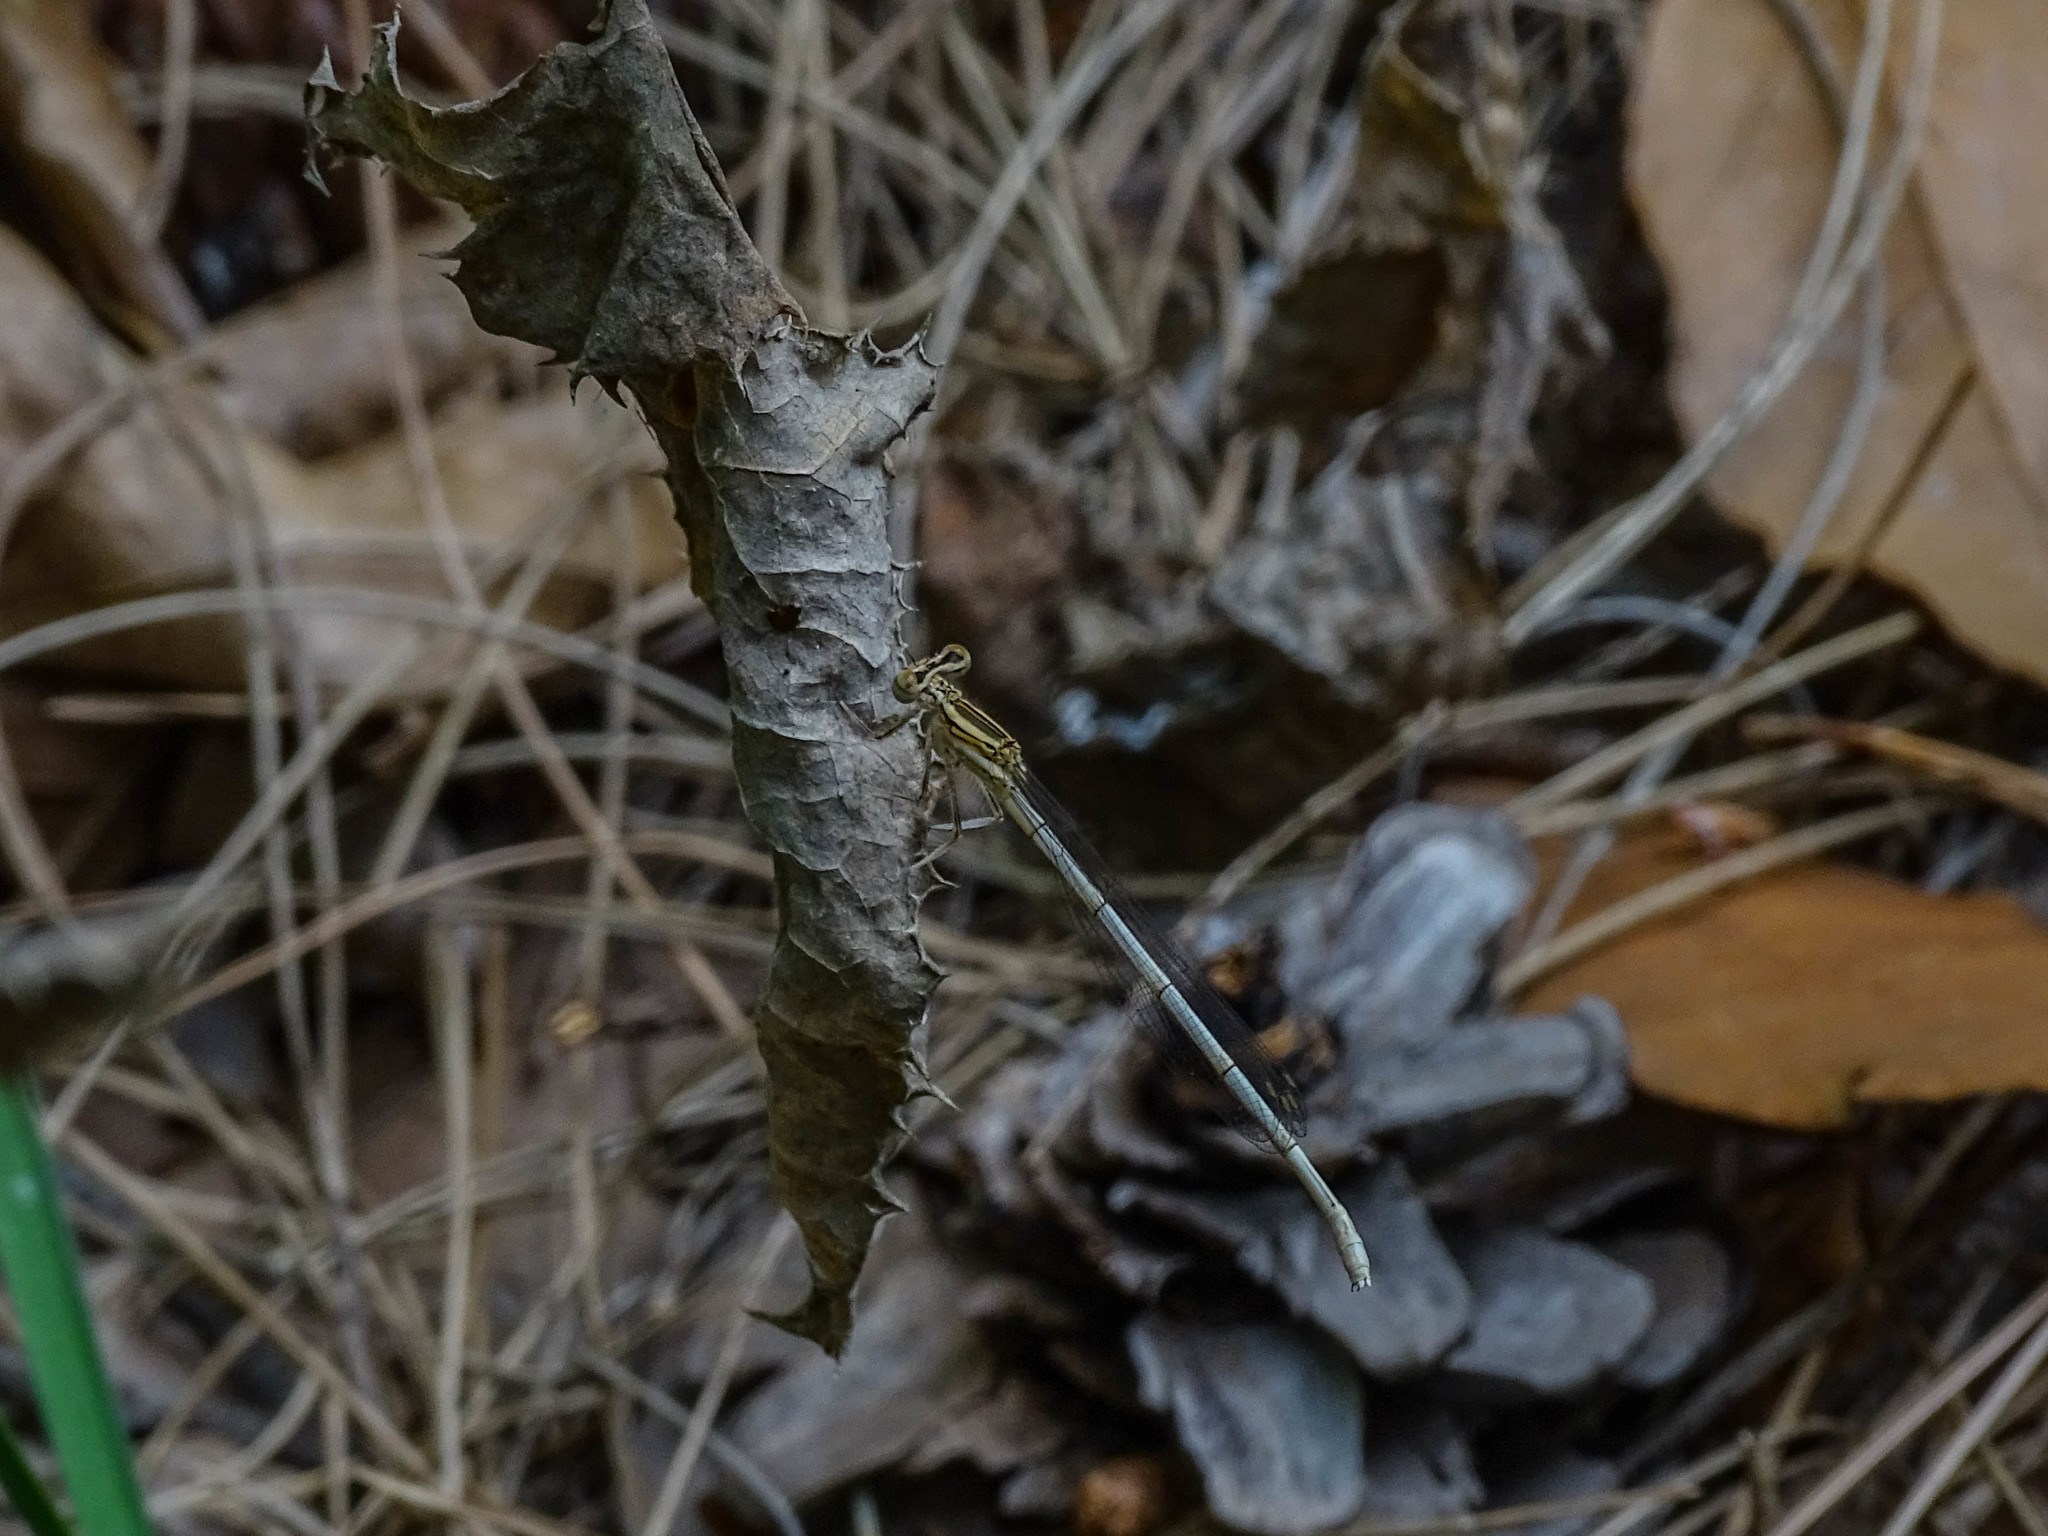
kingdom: Animalia
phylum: Arthropoda
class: Insecta
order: Odonata
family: Platycnemididae
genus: Platycnemis
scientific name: Platycnemis pennipes
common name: White-legged damselfly
